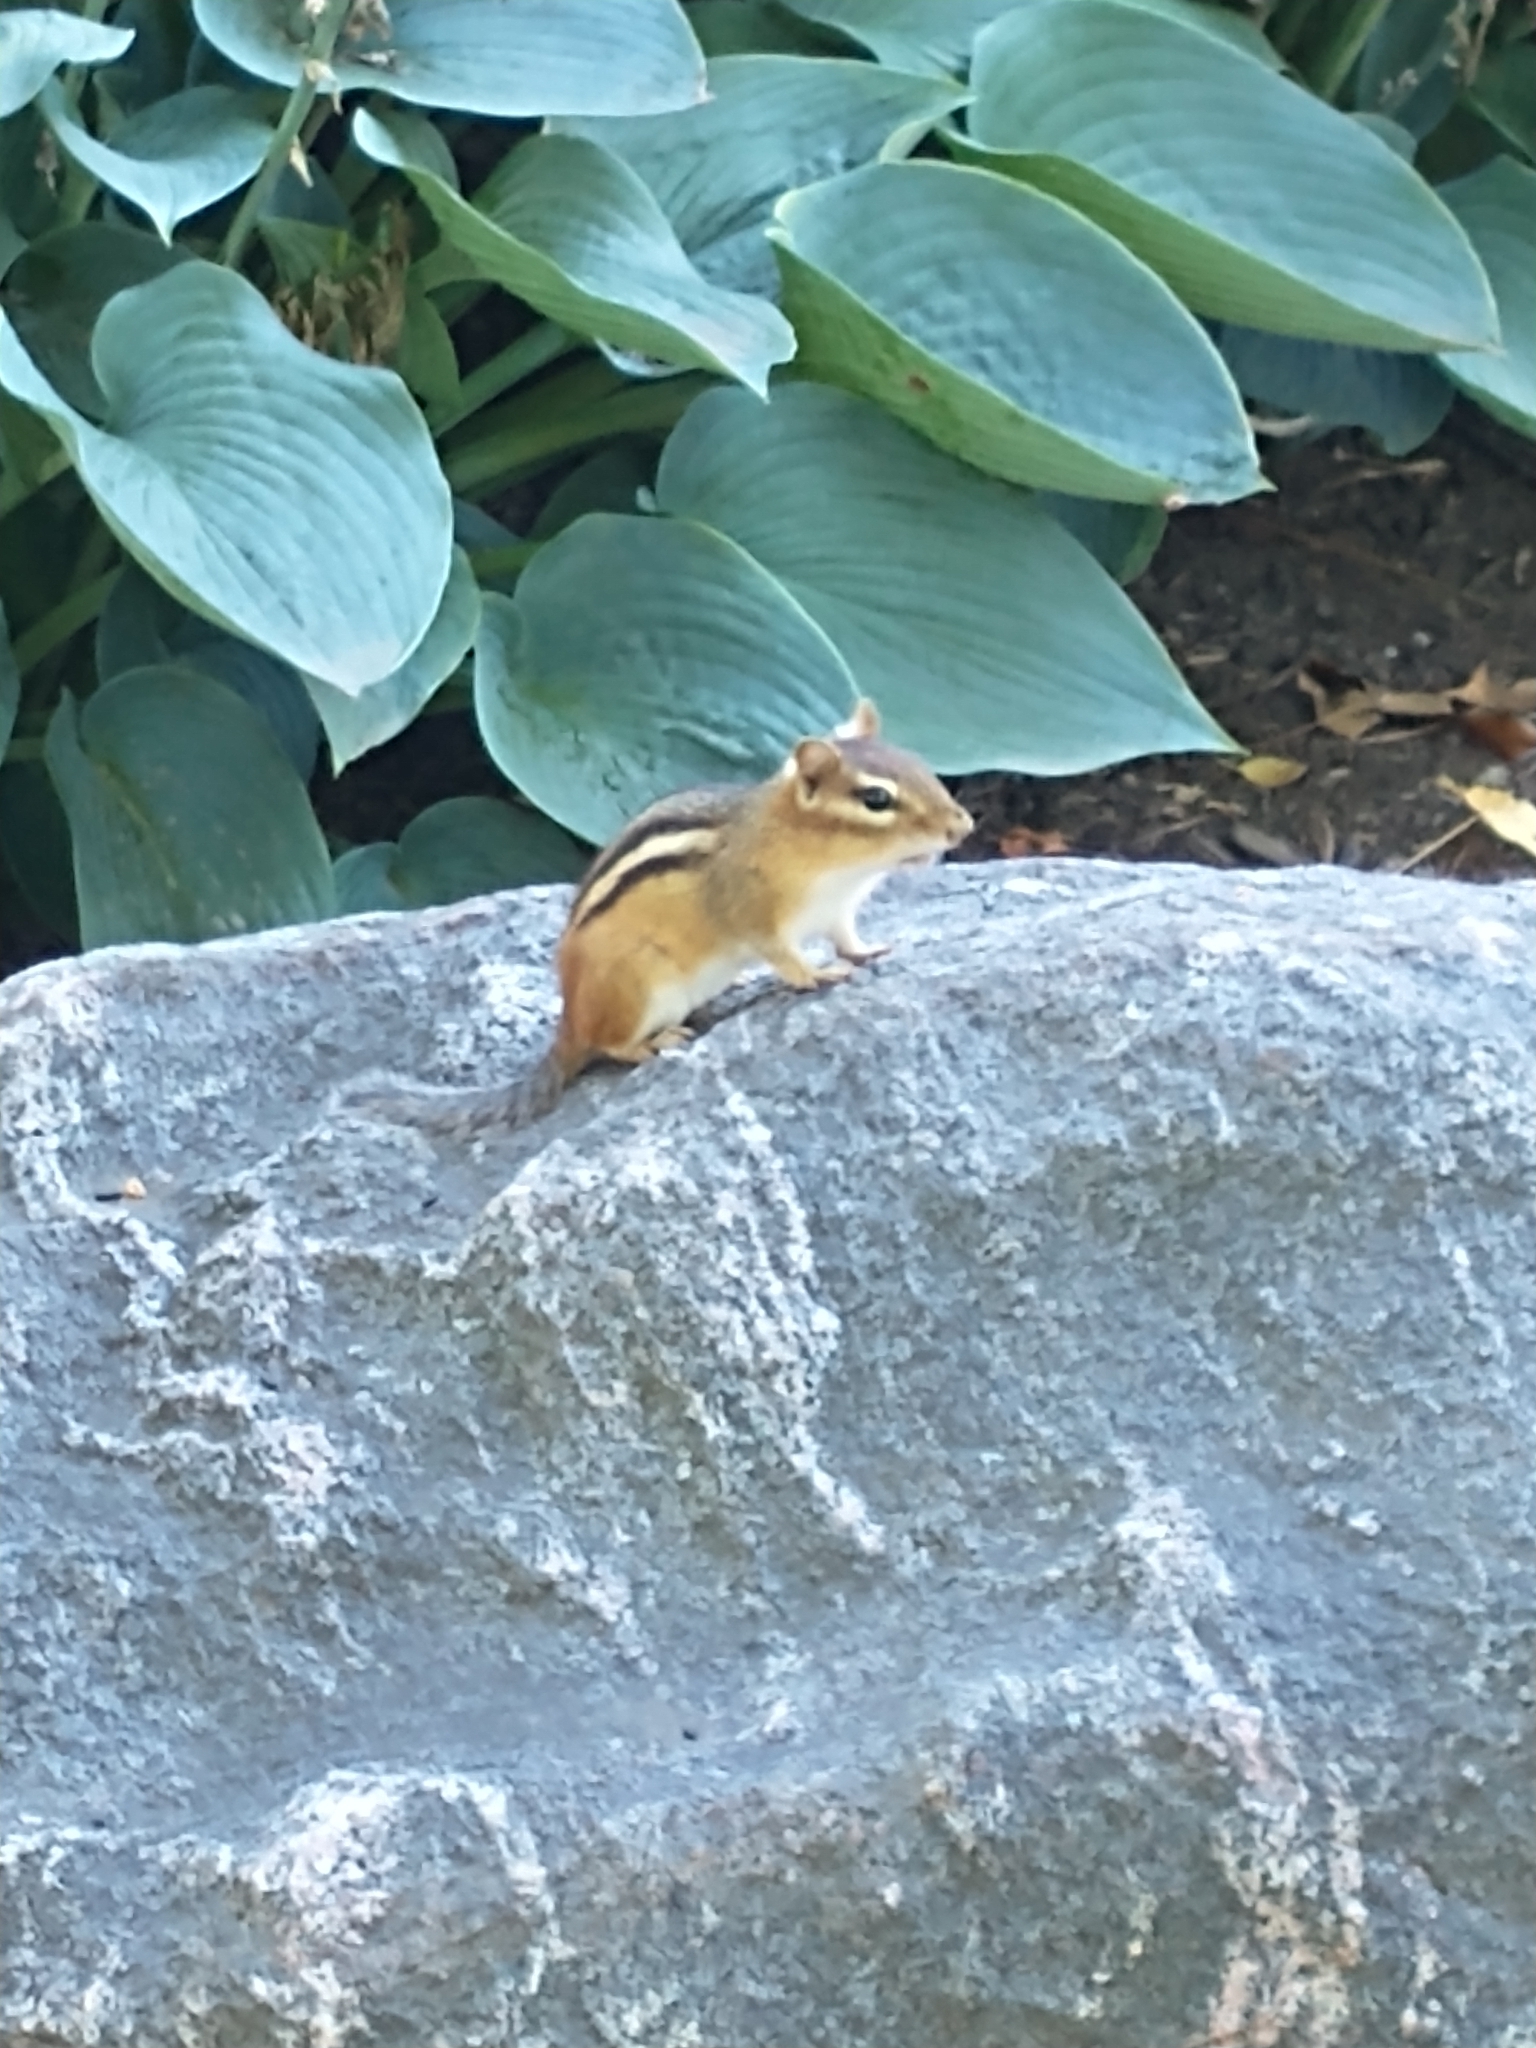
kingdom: Animalia
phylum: Chordata
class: Mammalia
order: Rodentia
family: Sciuridae
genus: Tamias
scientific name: Tamias striatus
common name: Eastern chipmunk
